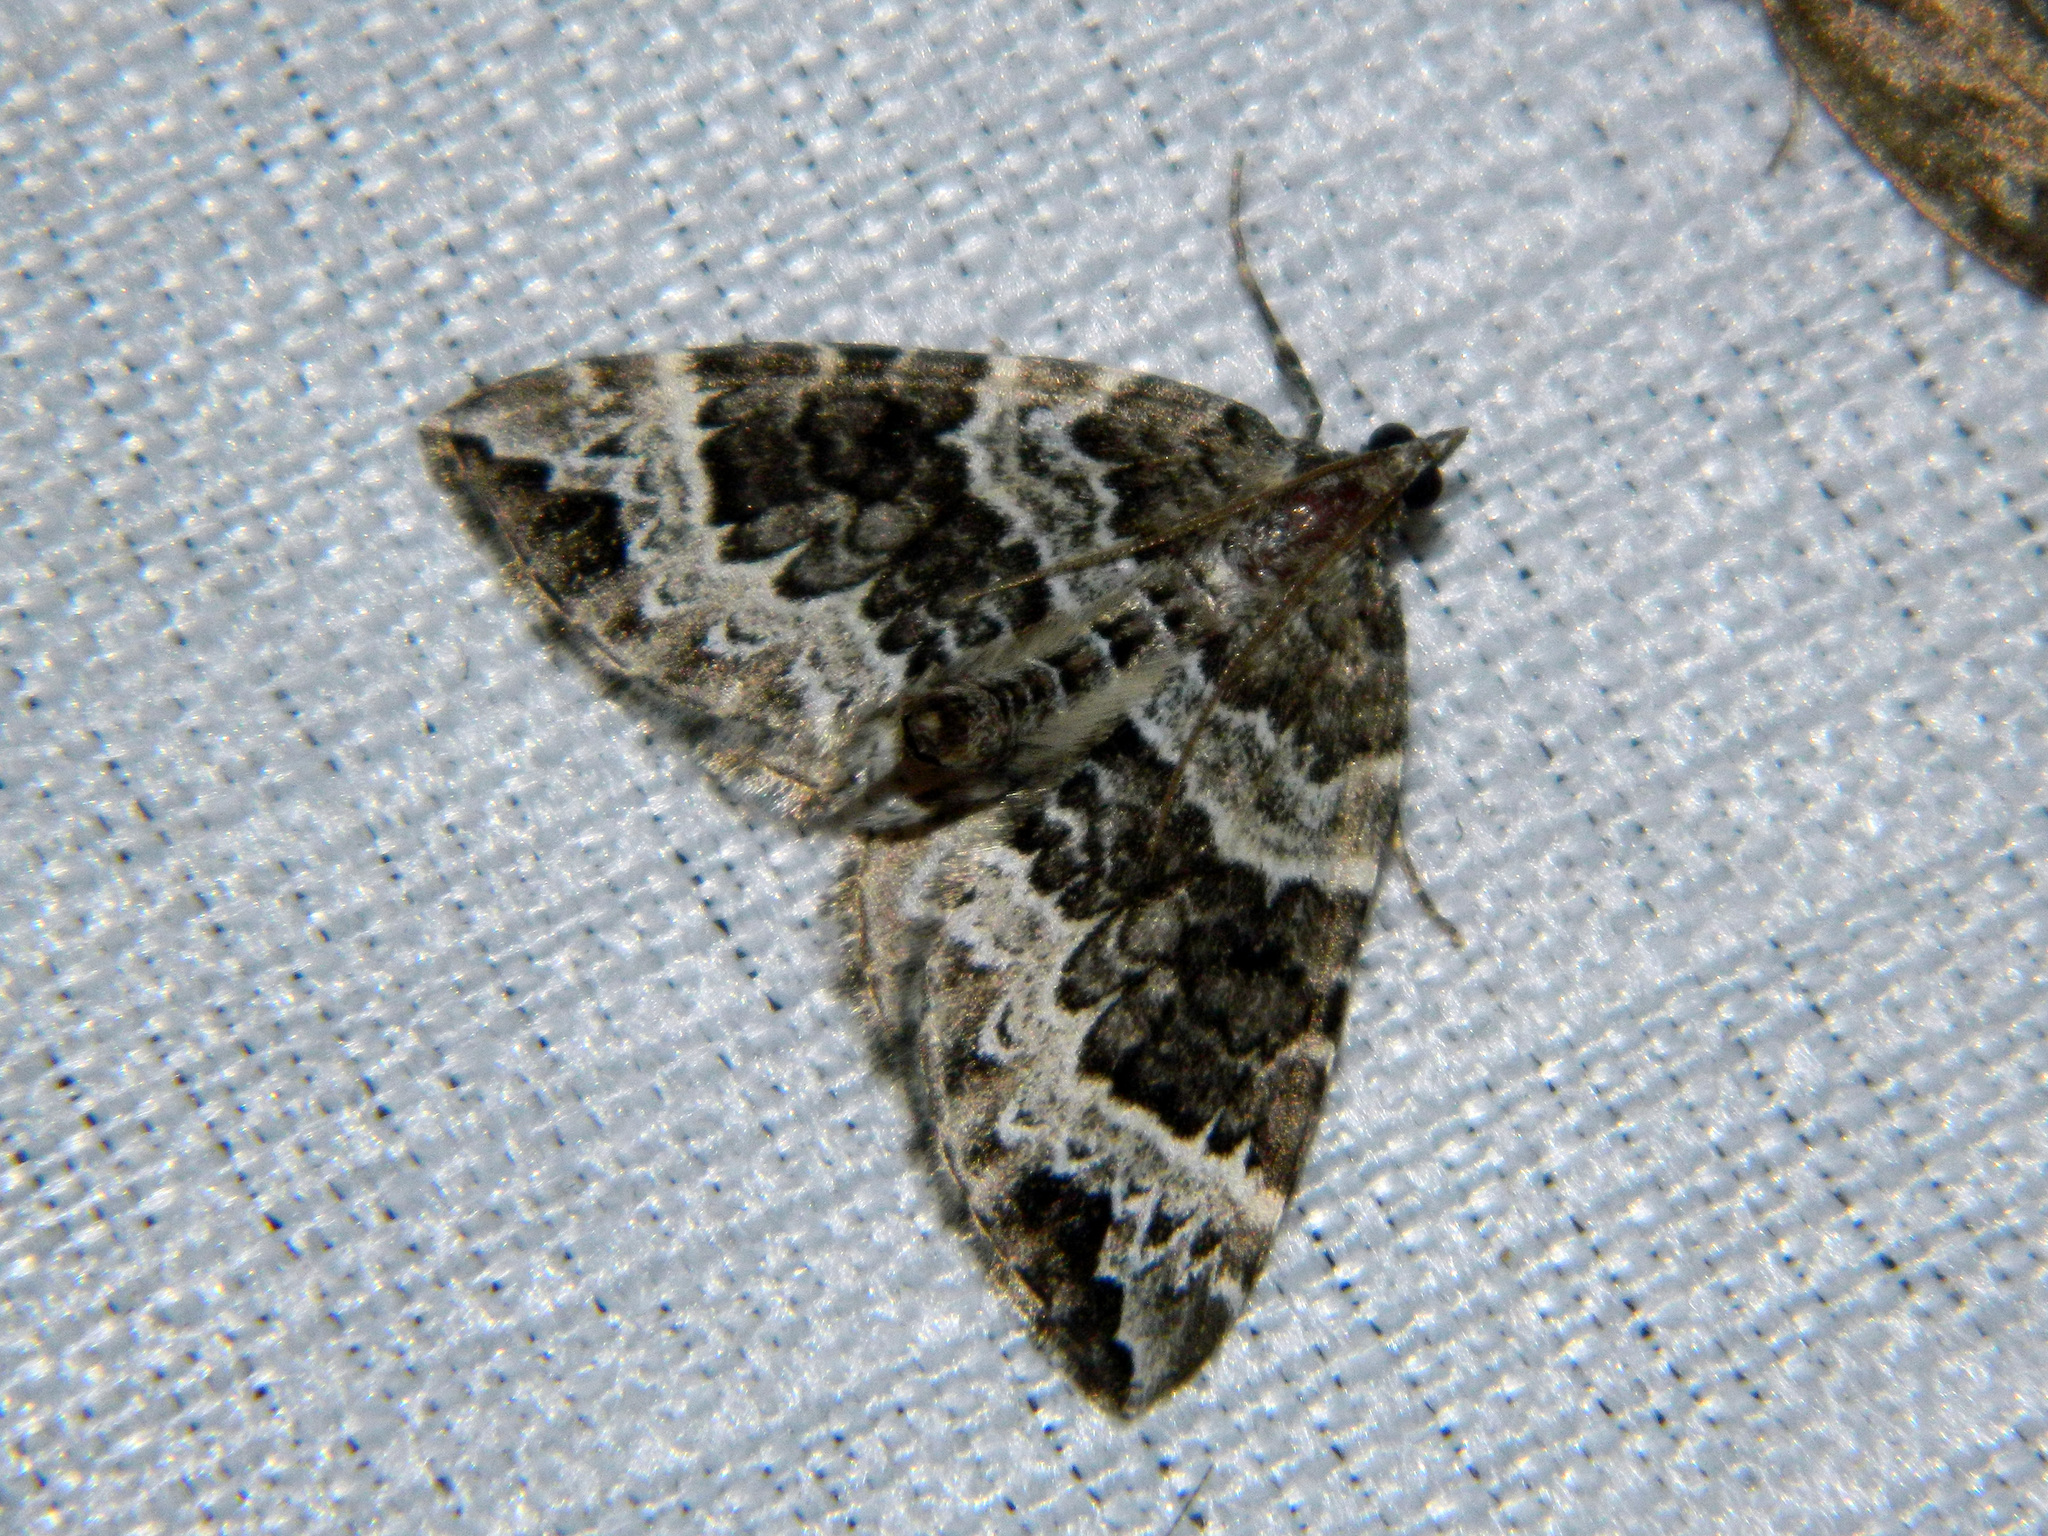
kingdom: Animalia
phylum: Arthropoda
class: Insecta
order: Lepidoptera
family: Geometridae
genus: Eulithis
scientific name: Eulithis explanata
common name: White eulithis
